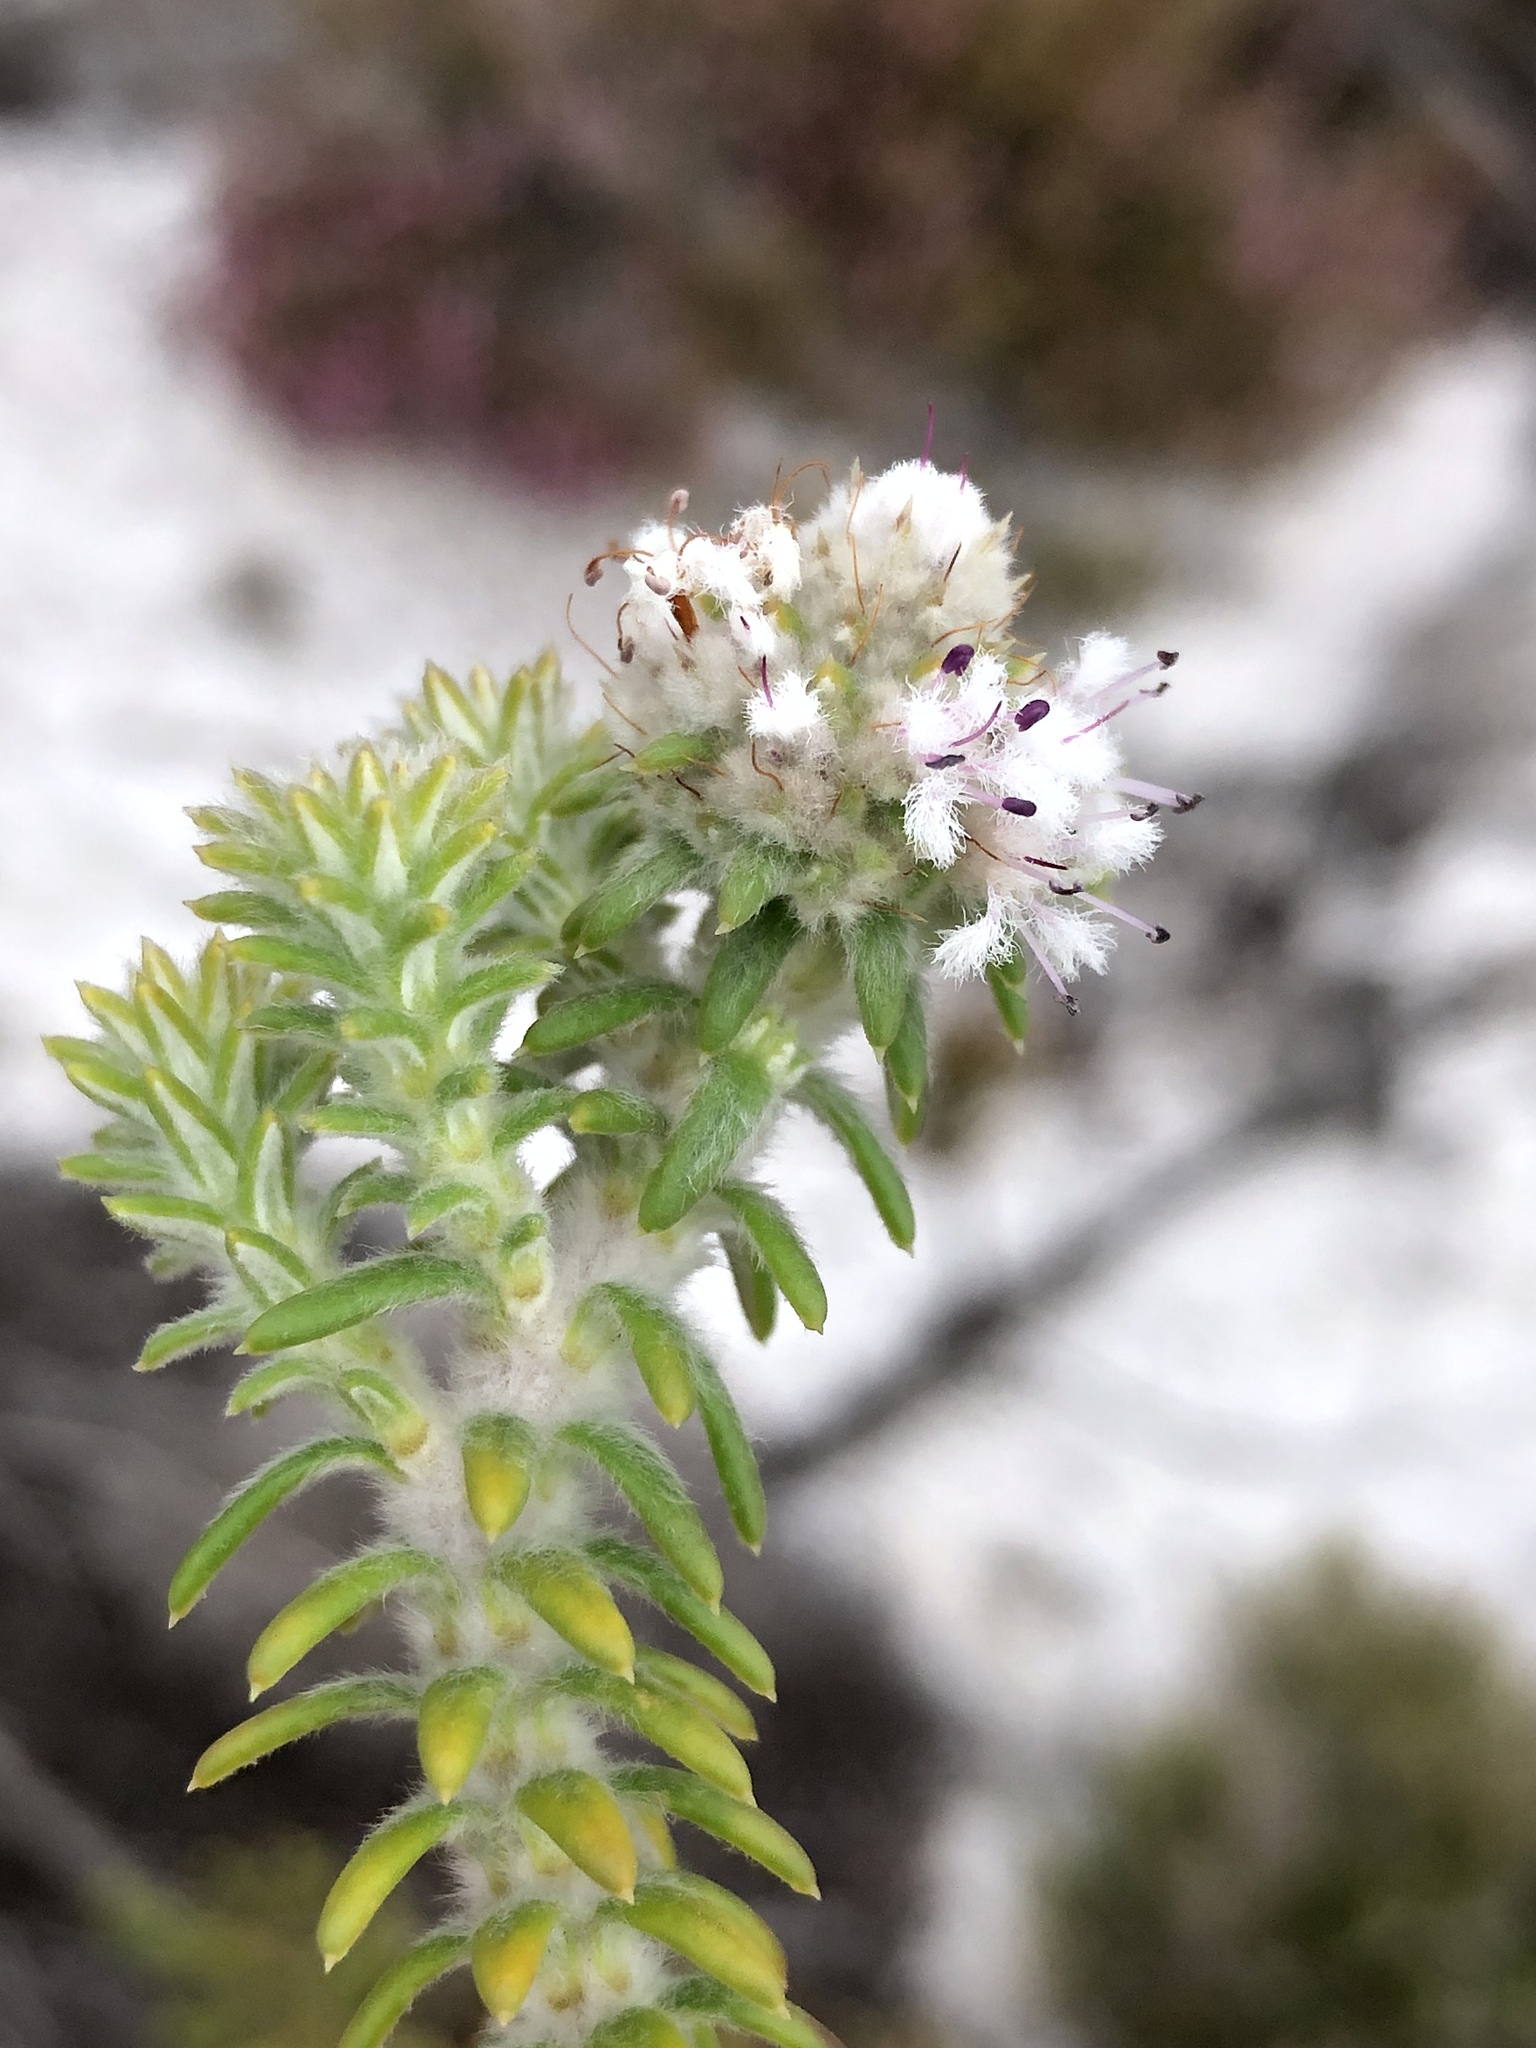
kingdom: Plantae
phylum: Tracheophyta
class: Magnoliopsida
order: Lamiales
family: Stilbaceae
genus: Kogelbergia
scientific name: Kogelbergia verticillata
